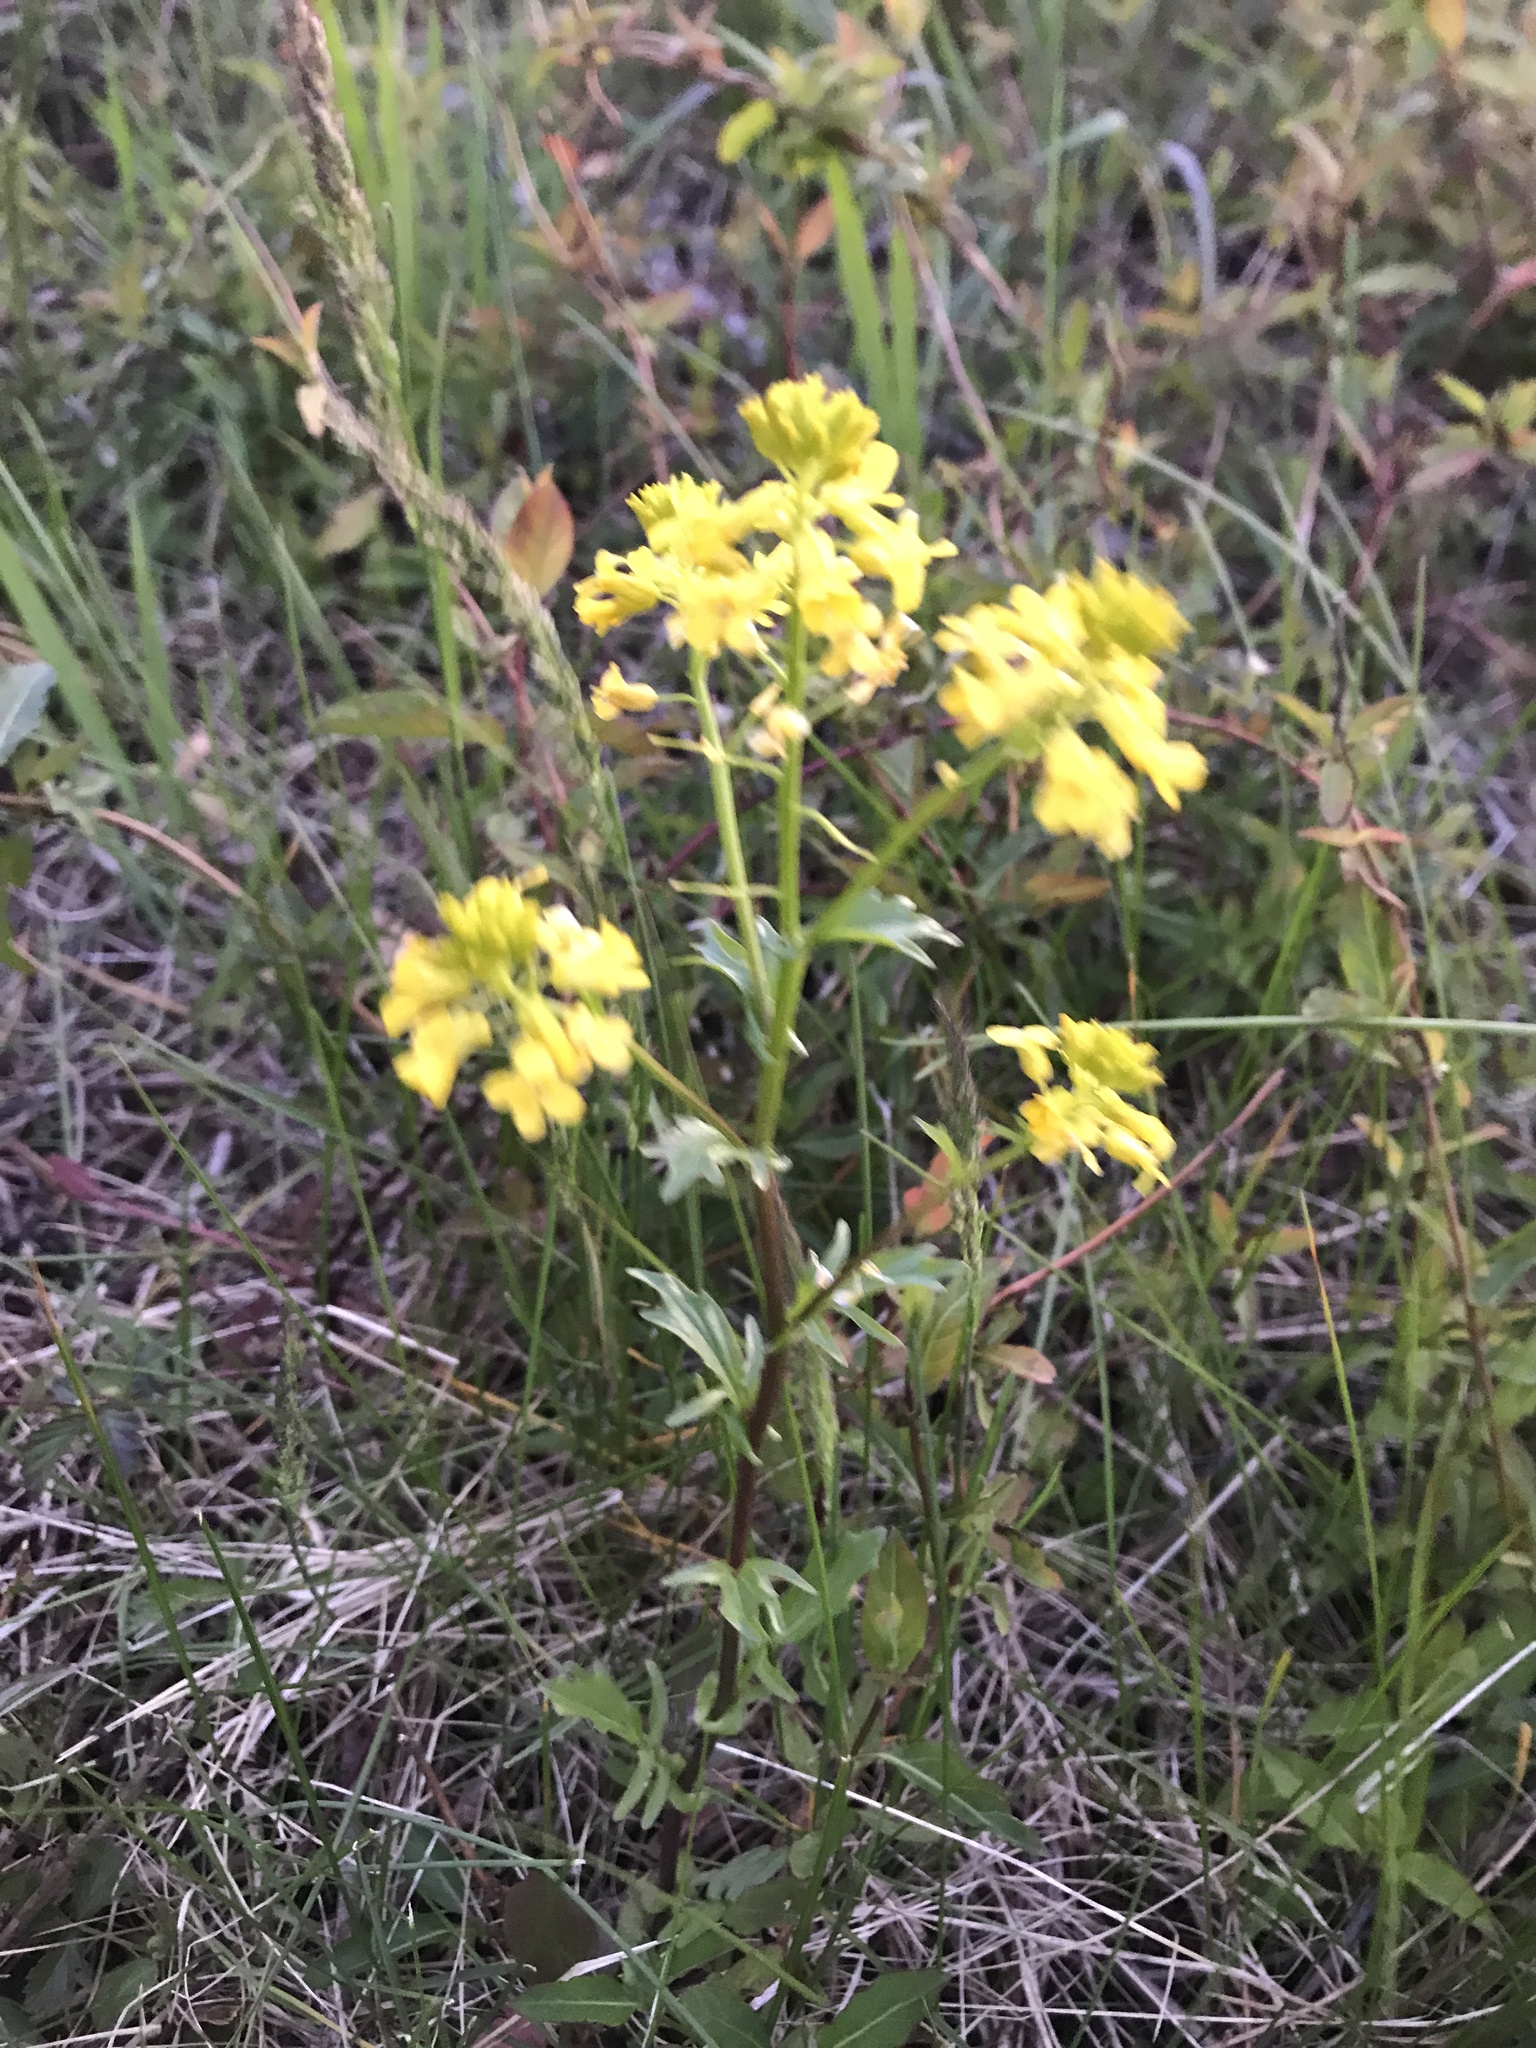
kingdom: Plantae
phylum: Tracheophyta
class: Magnoliopsida
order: Brassicales
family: Brassicaceae
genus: Barbarea
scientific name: Barbarea vulgaris
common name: Cressy-greens
